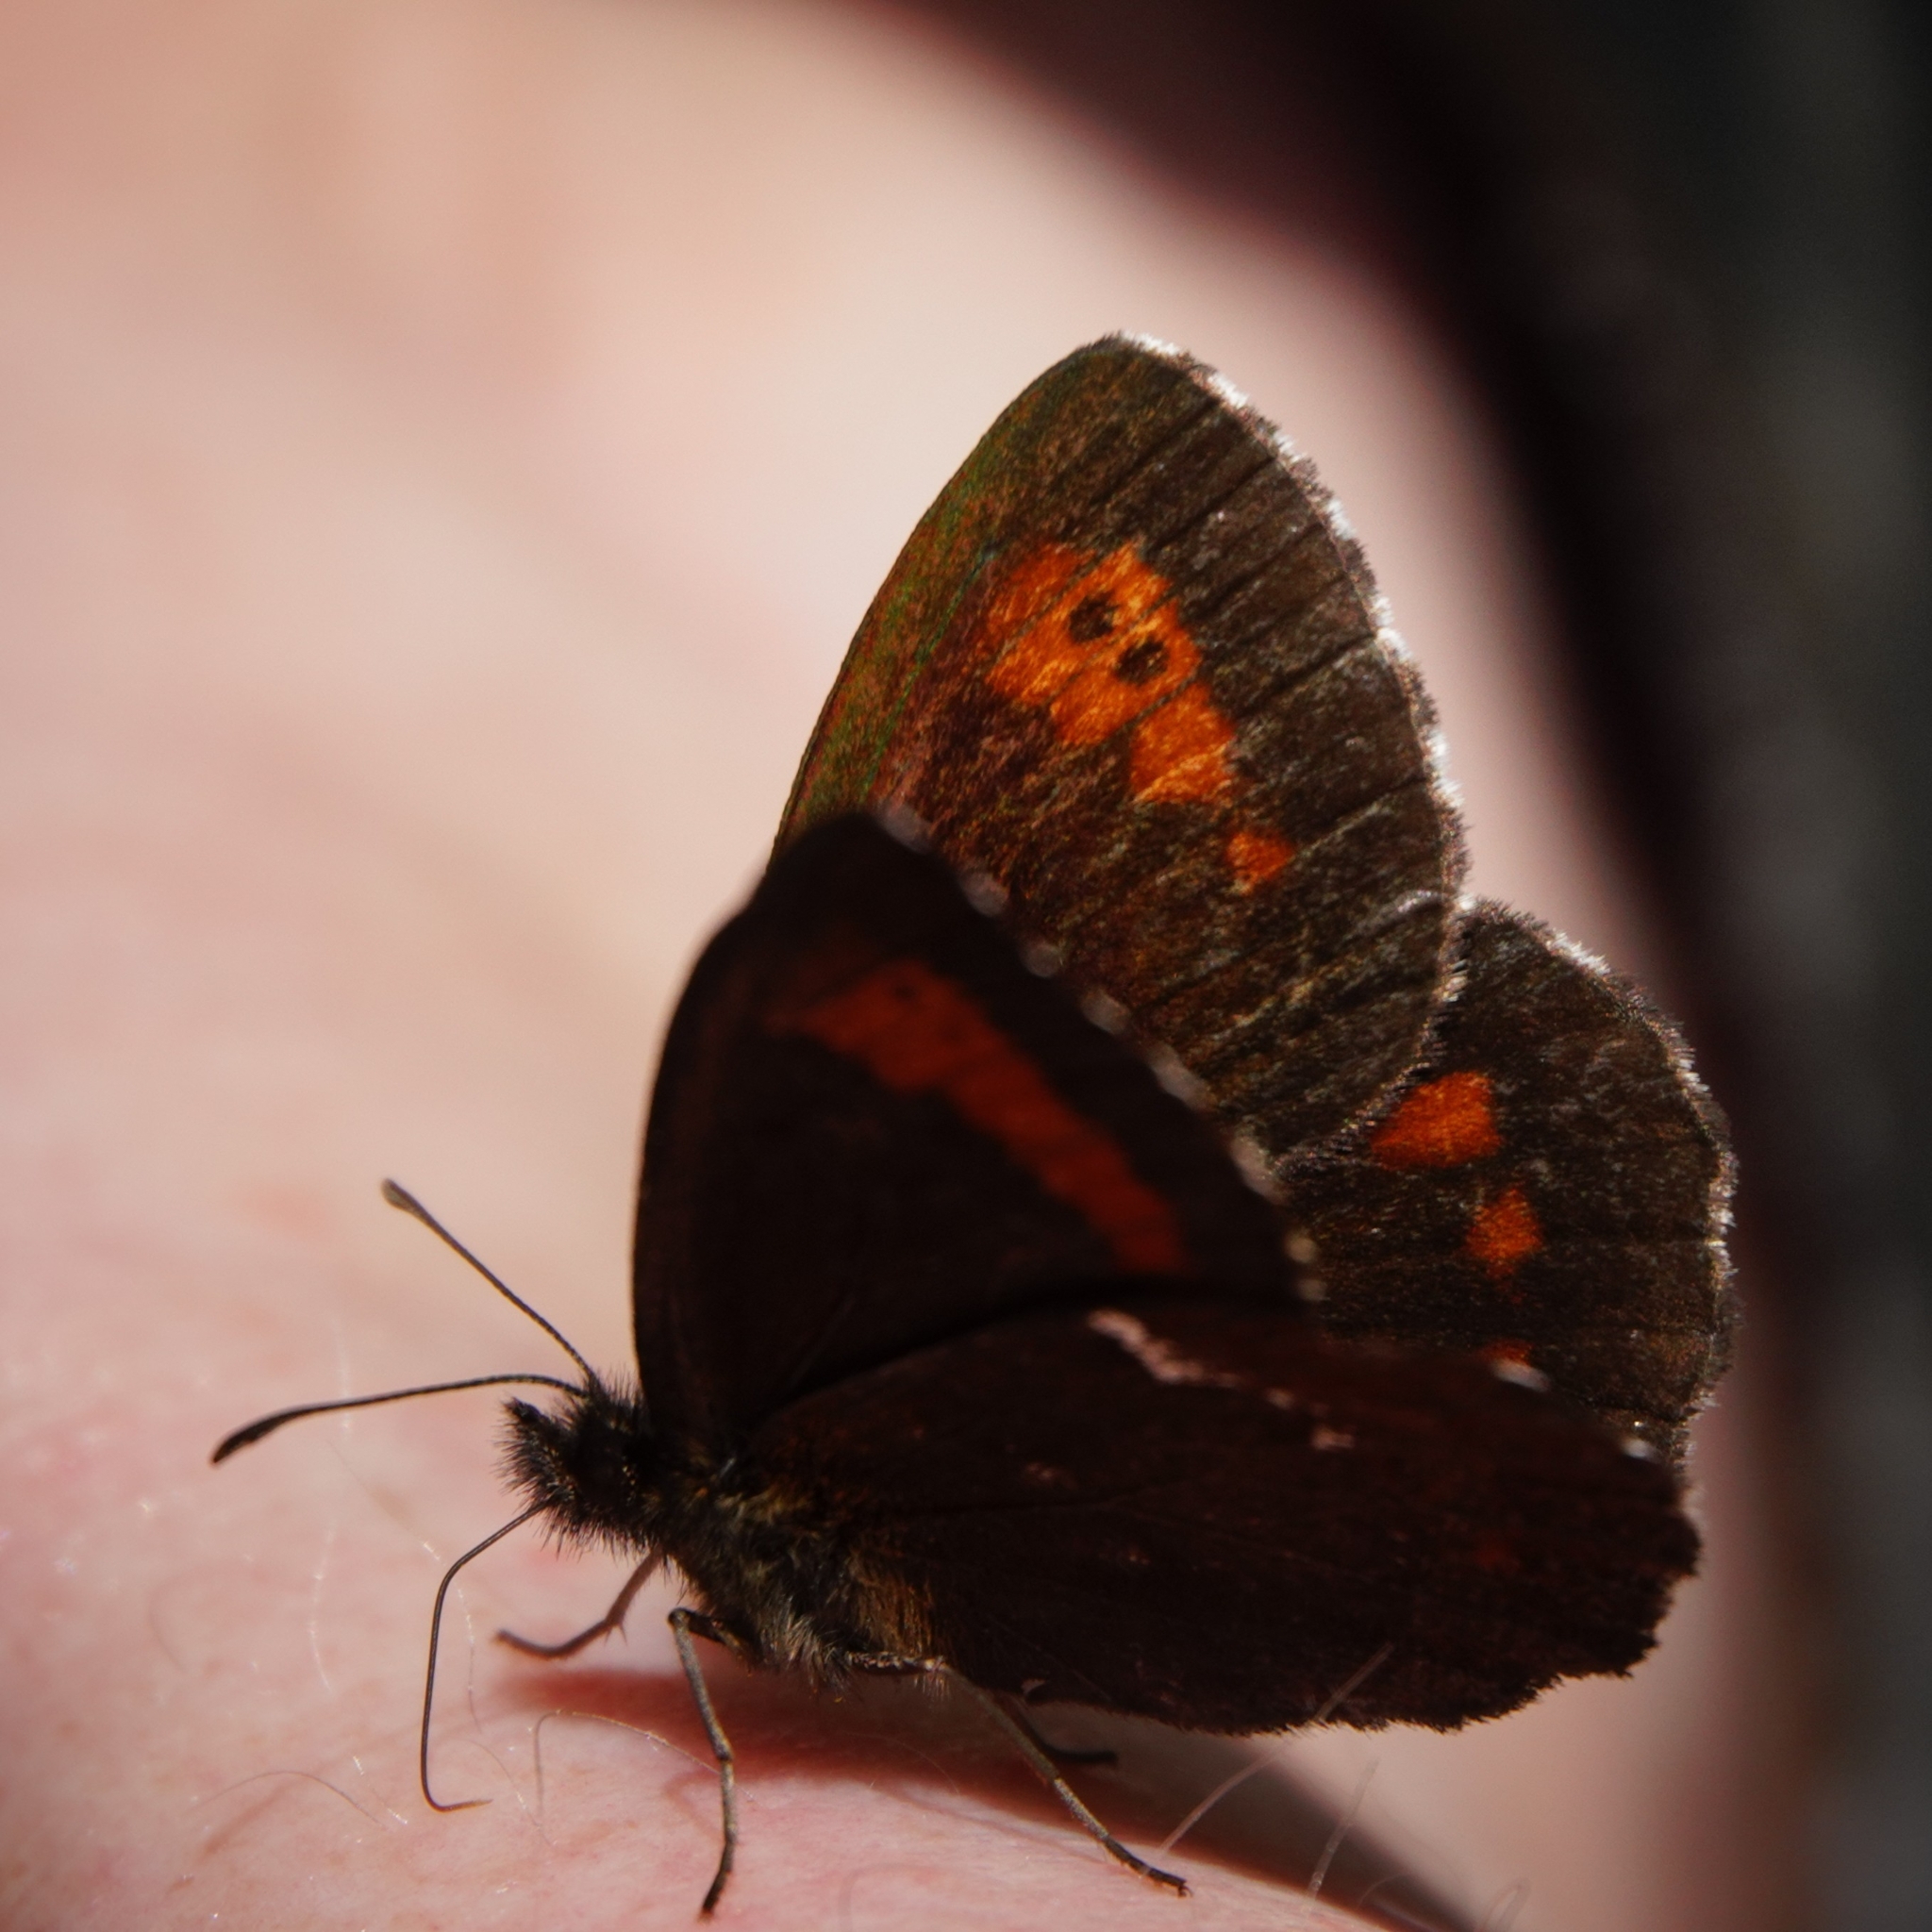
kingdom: Animalia
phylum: Arthropoda
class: Insecta
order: Lepidoptera
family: Nymphalidae
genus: Erebia
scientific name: Erebia ligea
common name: Arran brown
